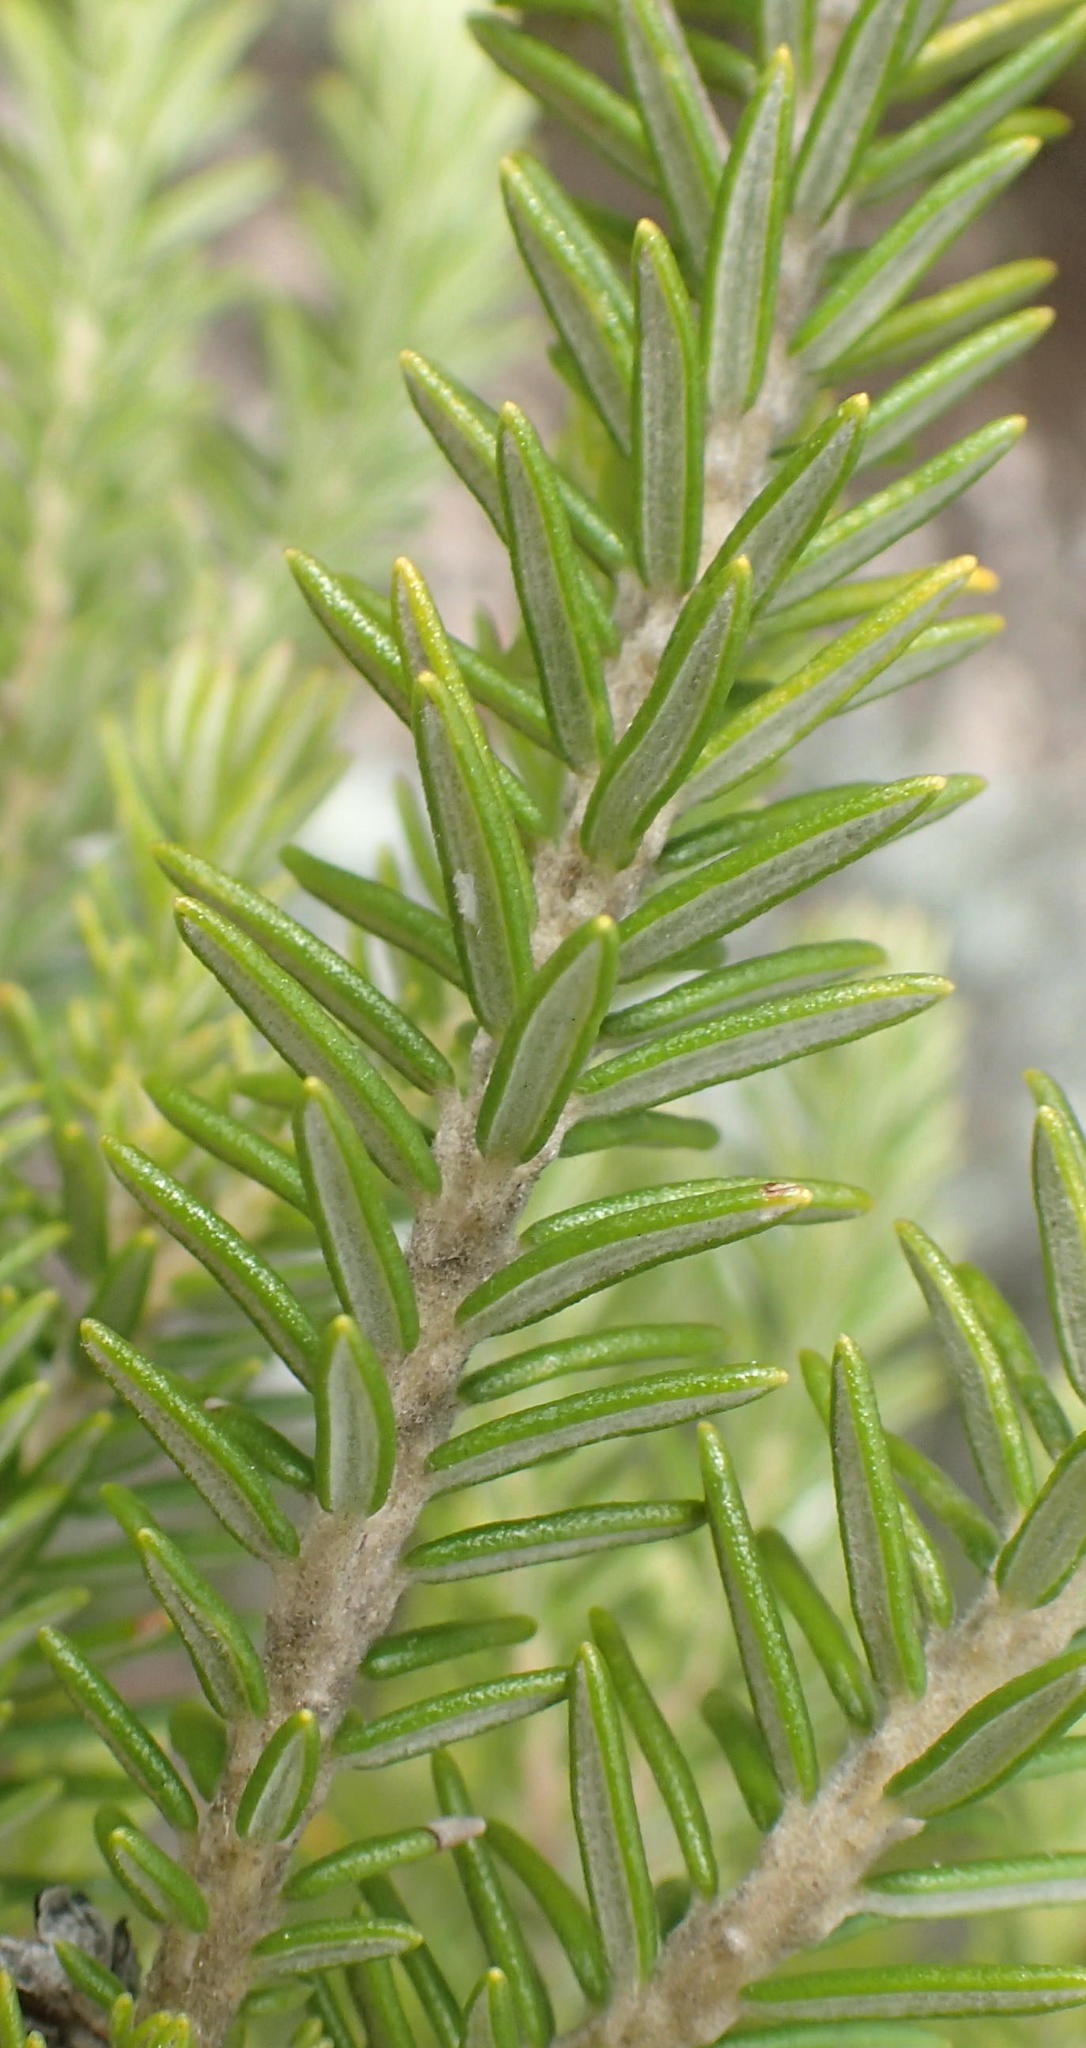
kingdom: Plantae
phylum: Tracheophyta
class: Magnoliopsida
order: Rosales
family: Rhamnaceae
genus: Phylica
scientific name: Phylica axillaris
